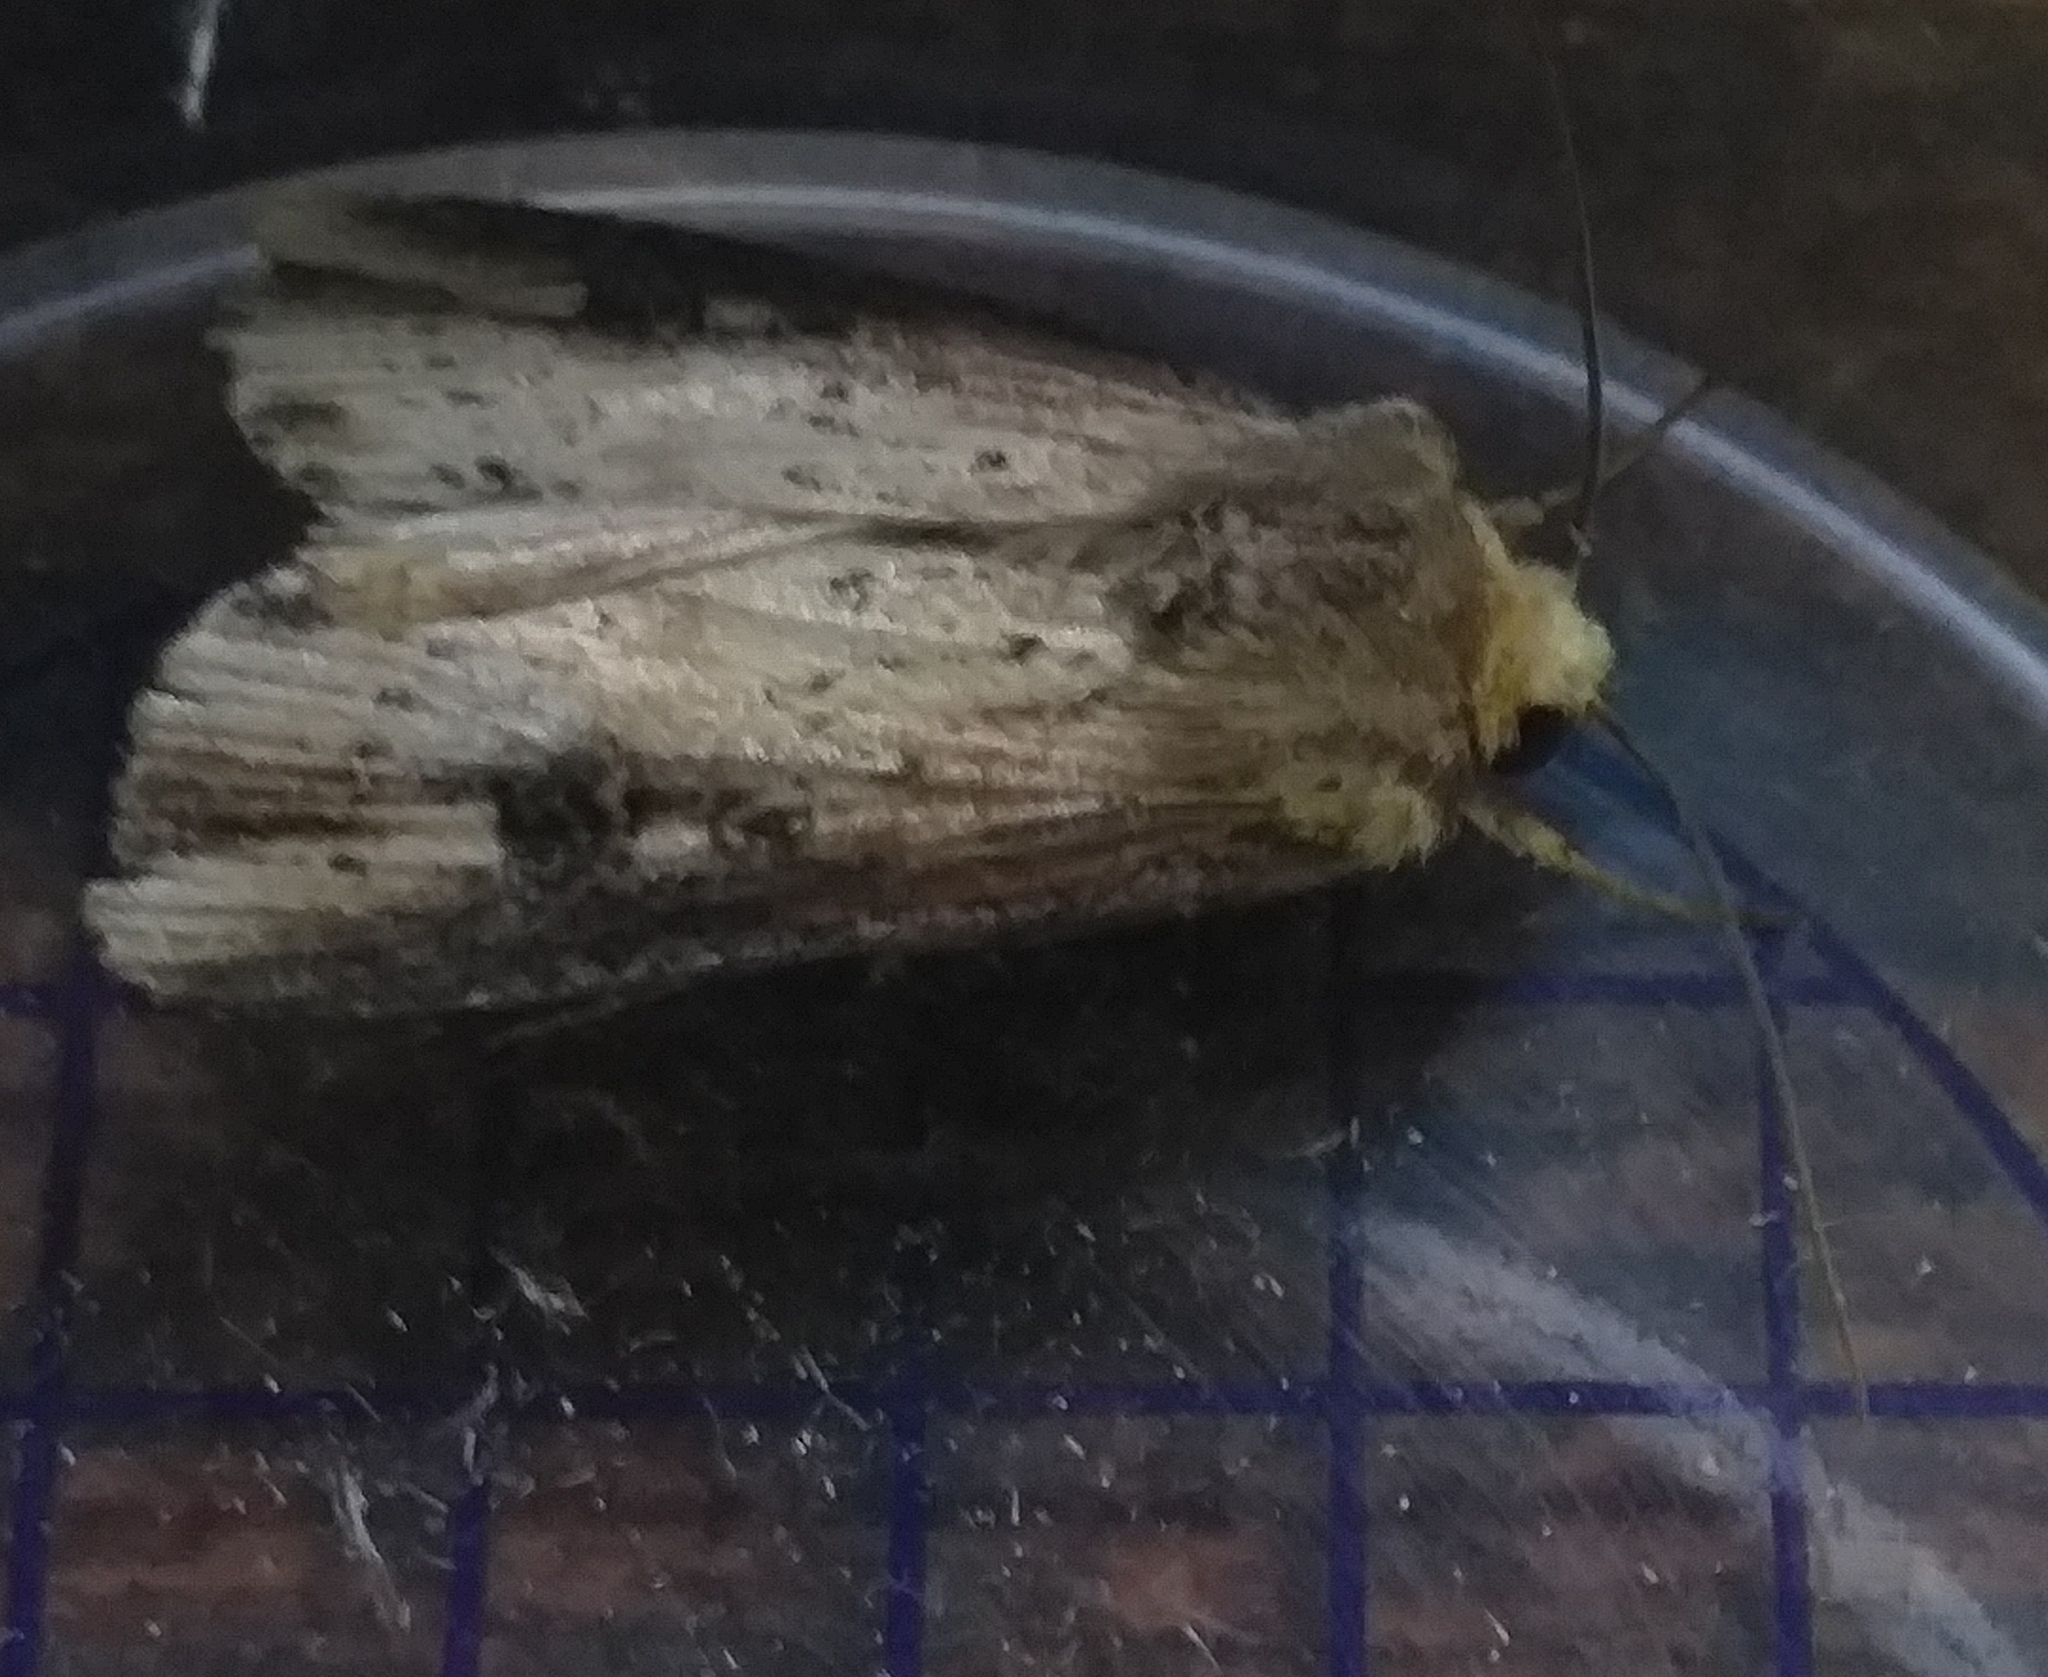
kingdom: Animalia
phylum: Arthropoda
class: Insecta
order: Lepidoptera
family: Noctuidae
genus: Axylia
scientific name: Axylia putris
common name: Flame
